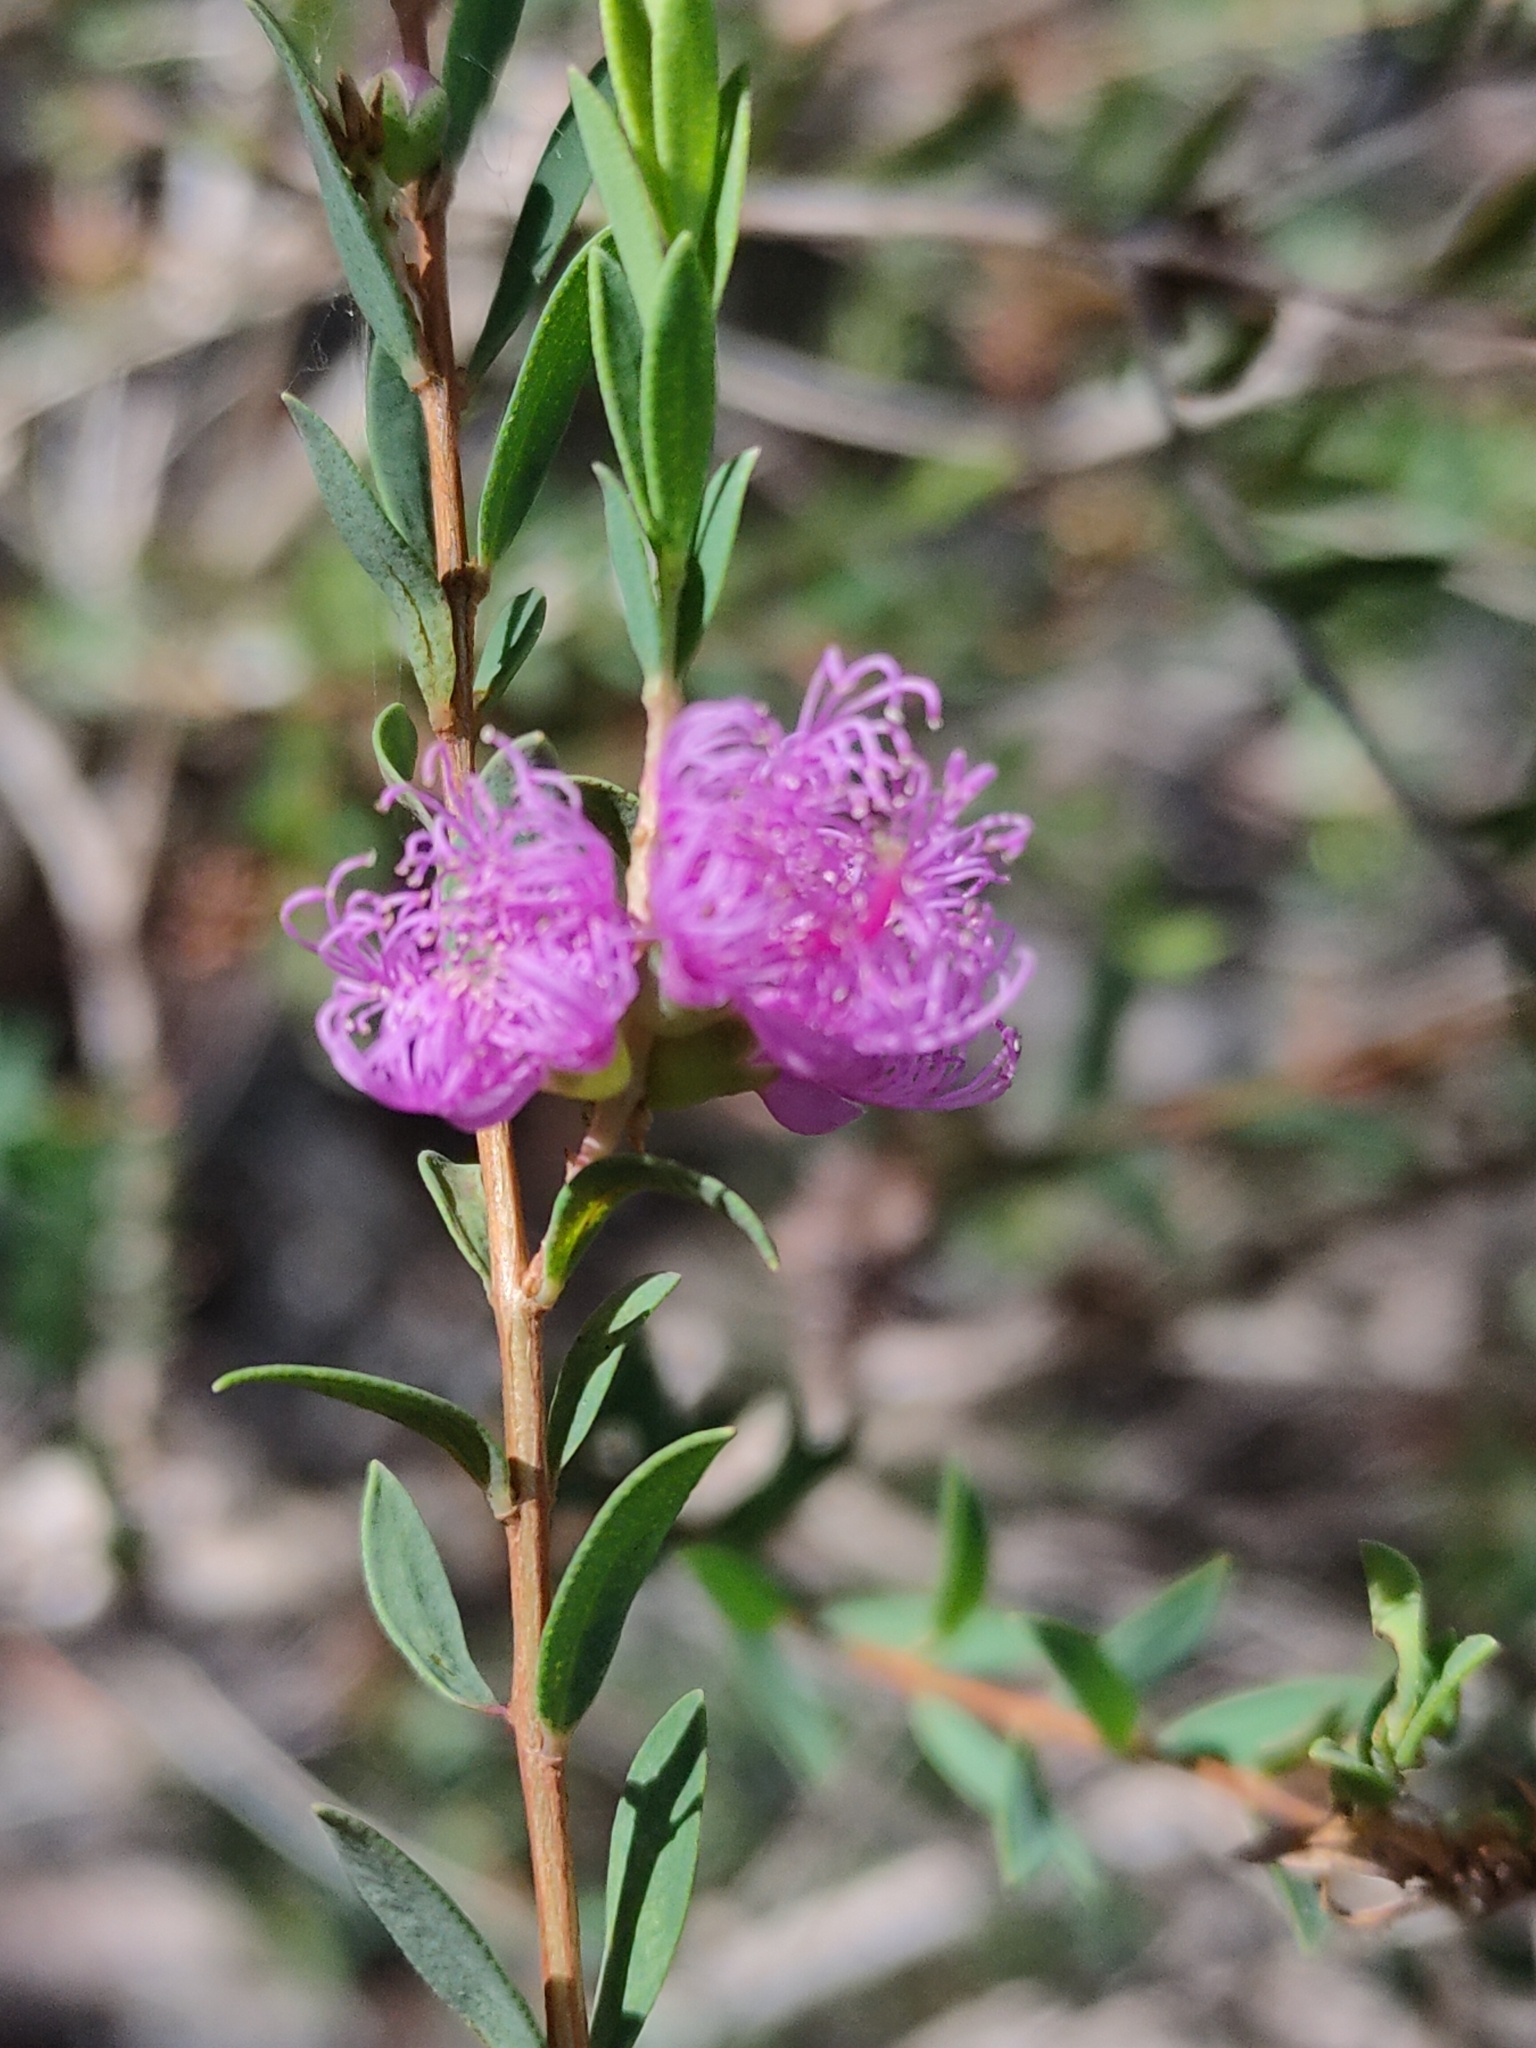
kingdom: Plantae
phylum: Tracheophyta
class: Magnoliopsida
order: Myrtales
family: Myrtaceae
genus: Melaleuca
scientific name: Melaleuca thymifolia
